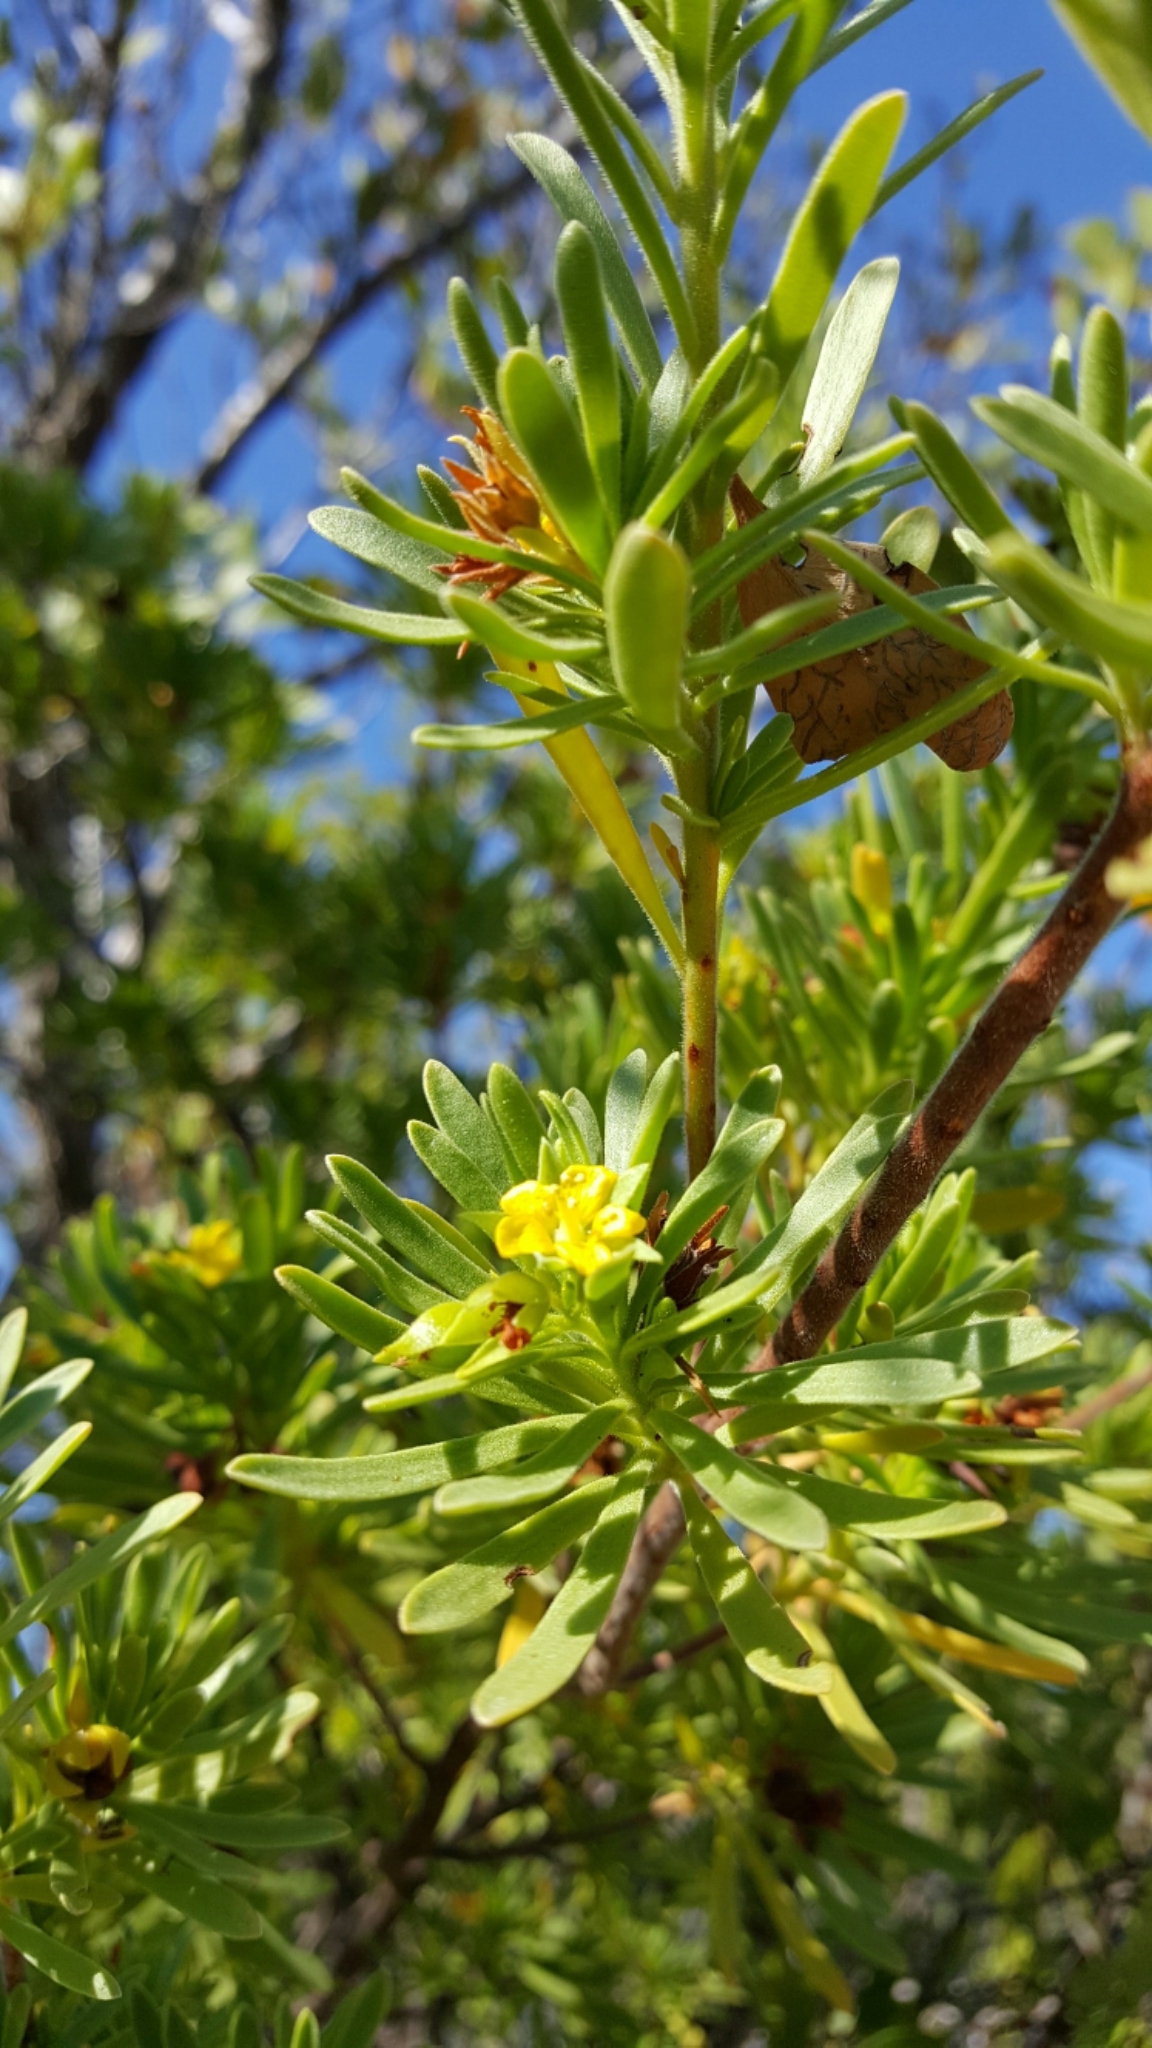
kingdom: Plantae
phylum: Tracheophyta
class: Magnoliopsida
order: Fabales
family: Surianaceae
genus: Suriana
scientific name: Suriana maritima
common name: Bay-cedar
